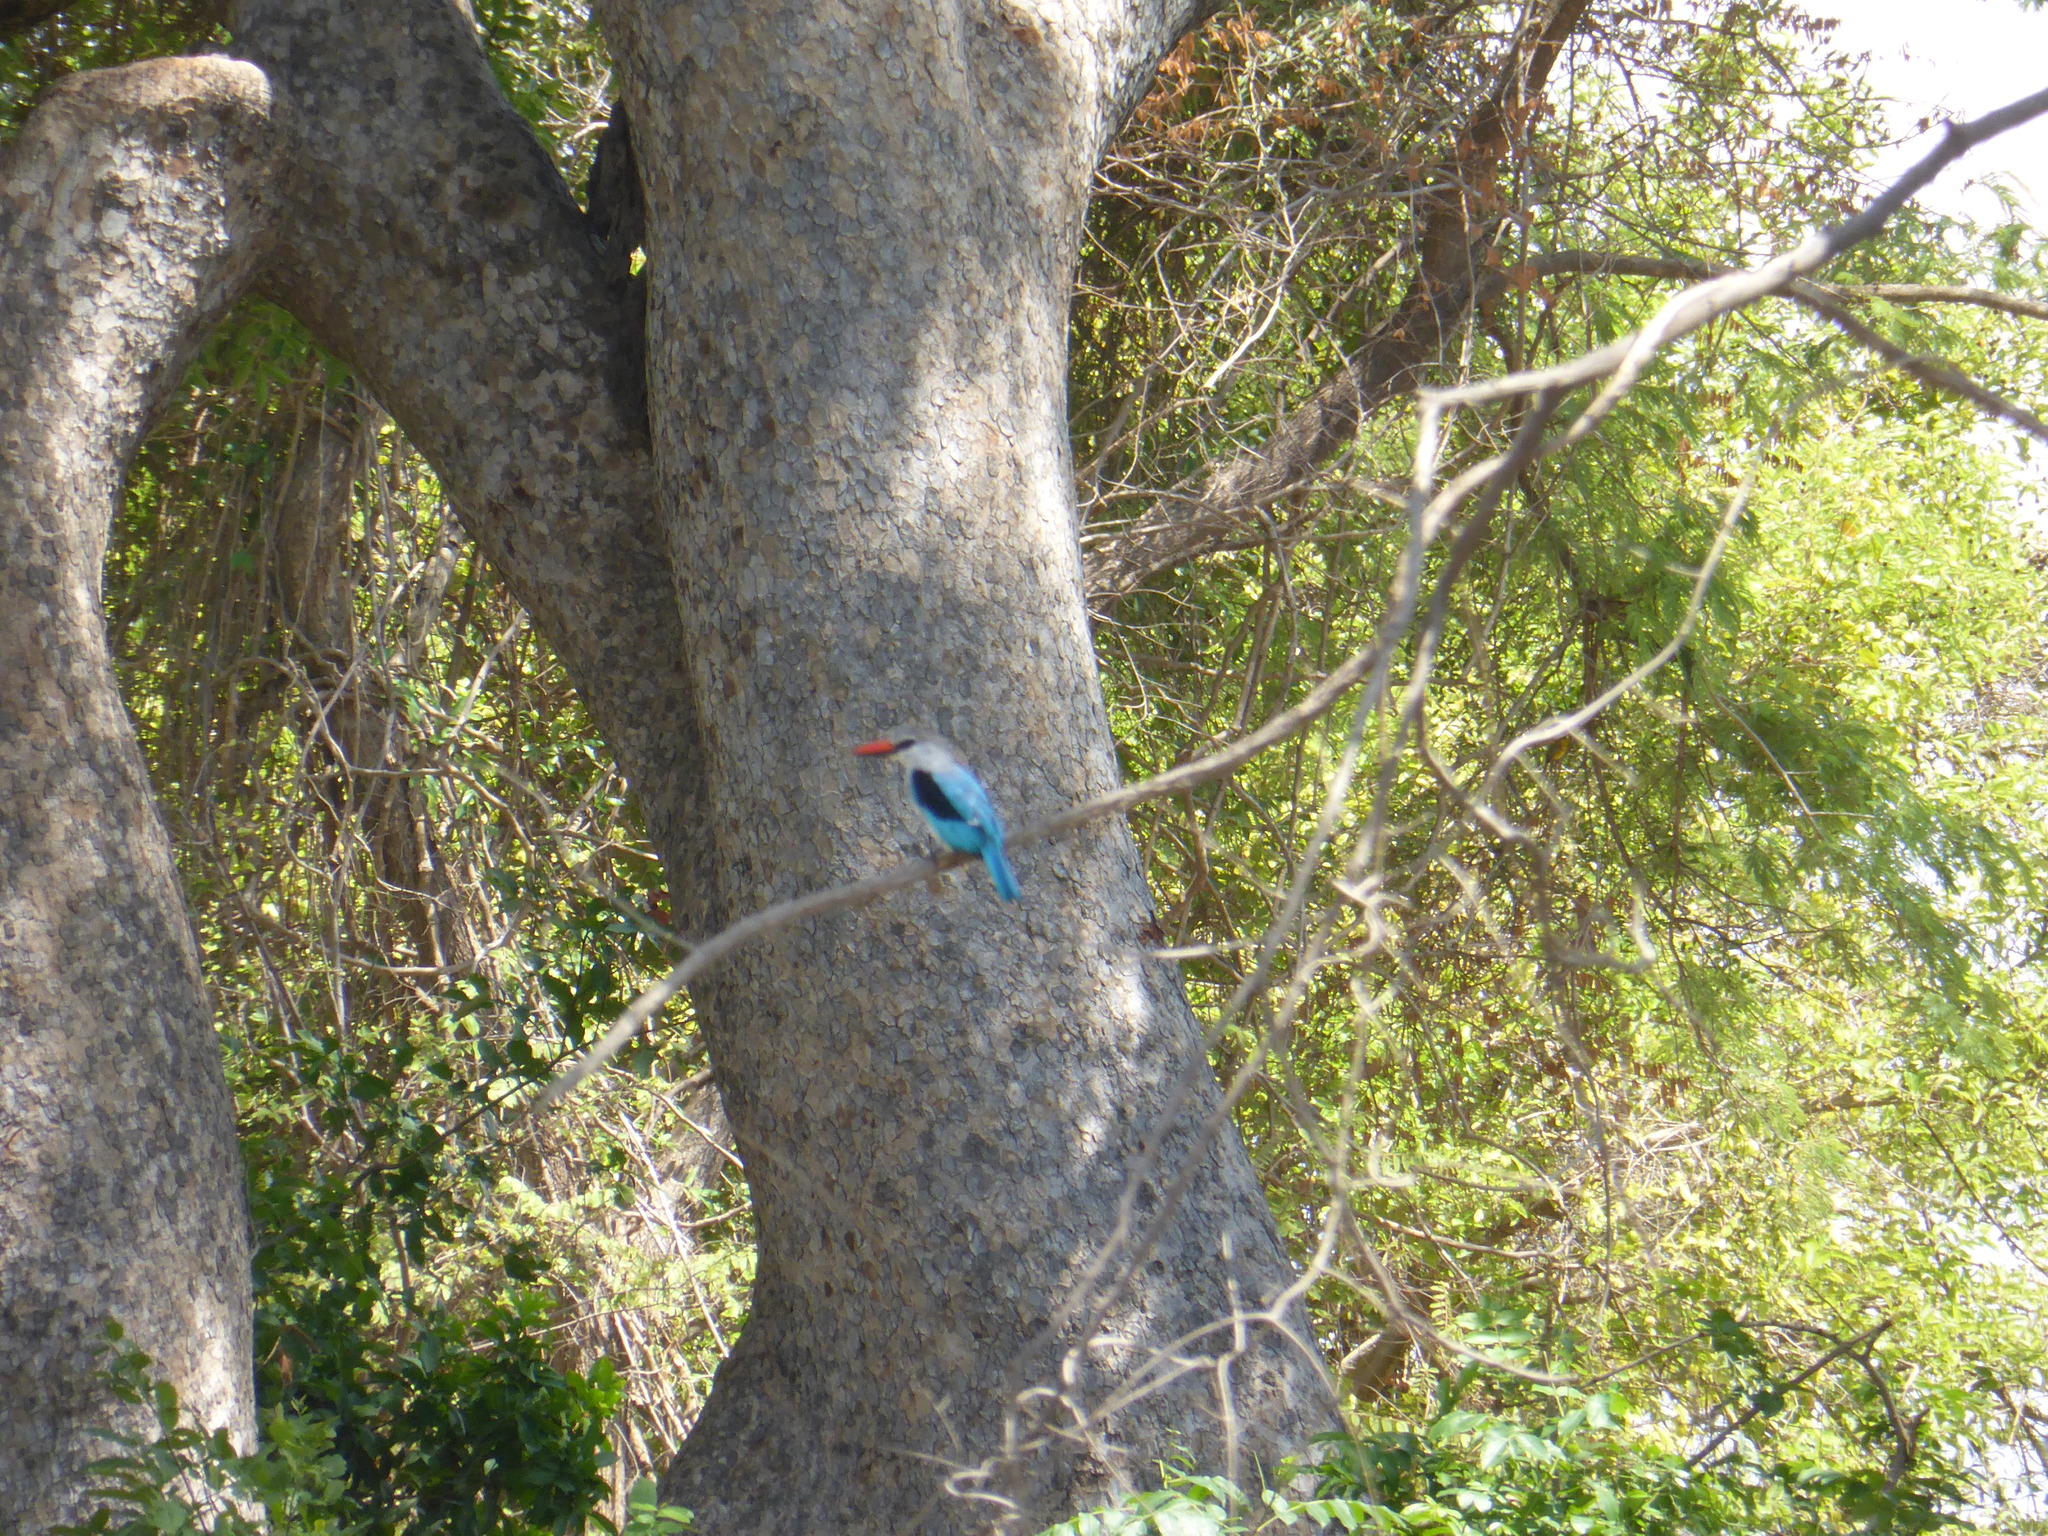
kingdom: Animalia
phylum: Chordata
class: Aves
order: Coraciiformes
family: Alcedinidae
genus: Halcyon
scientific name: Halcyon senegalensis
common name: Woodland kingfisher
